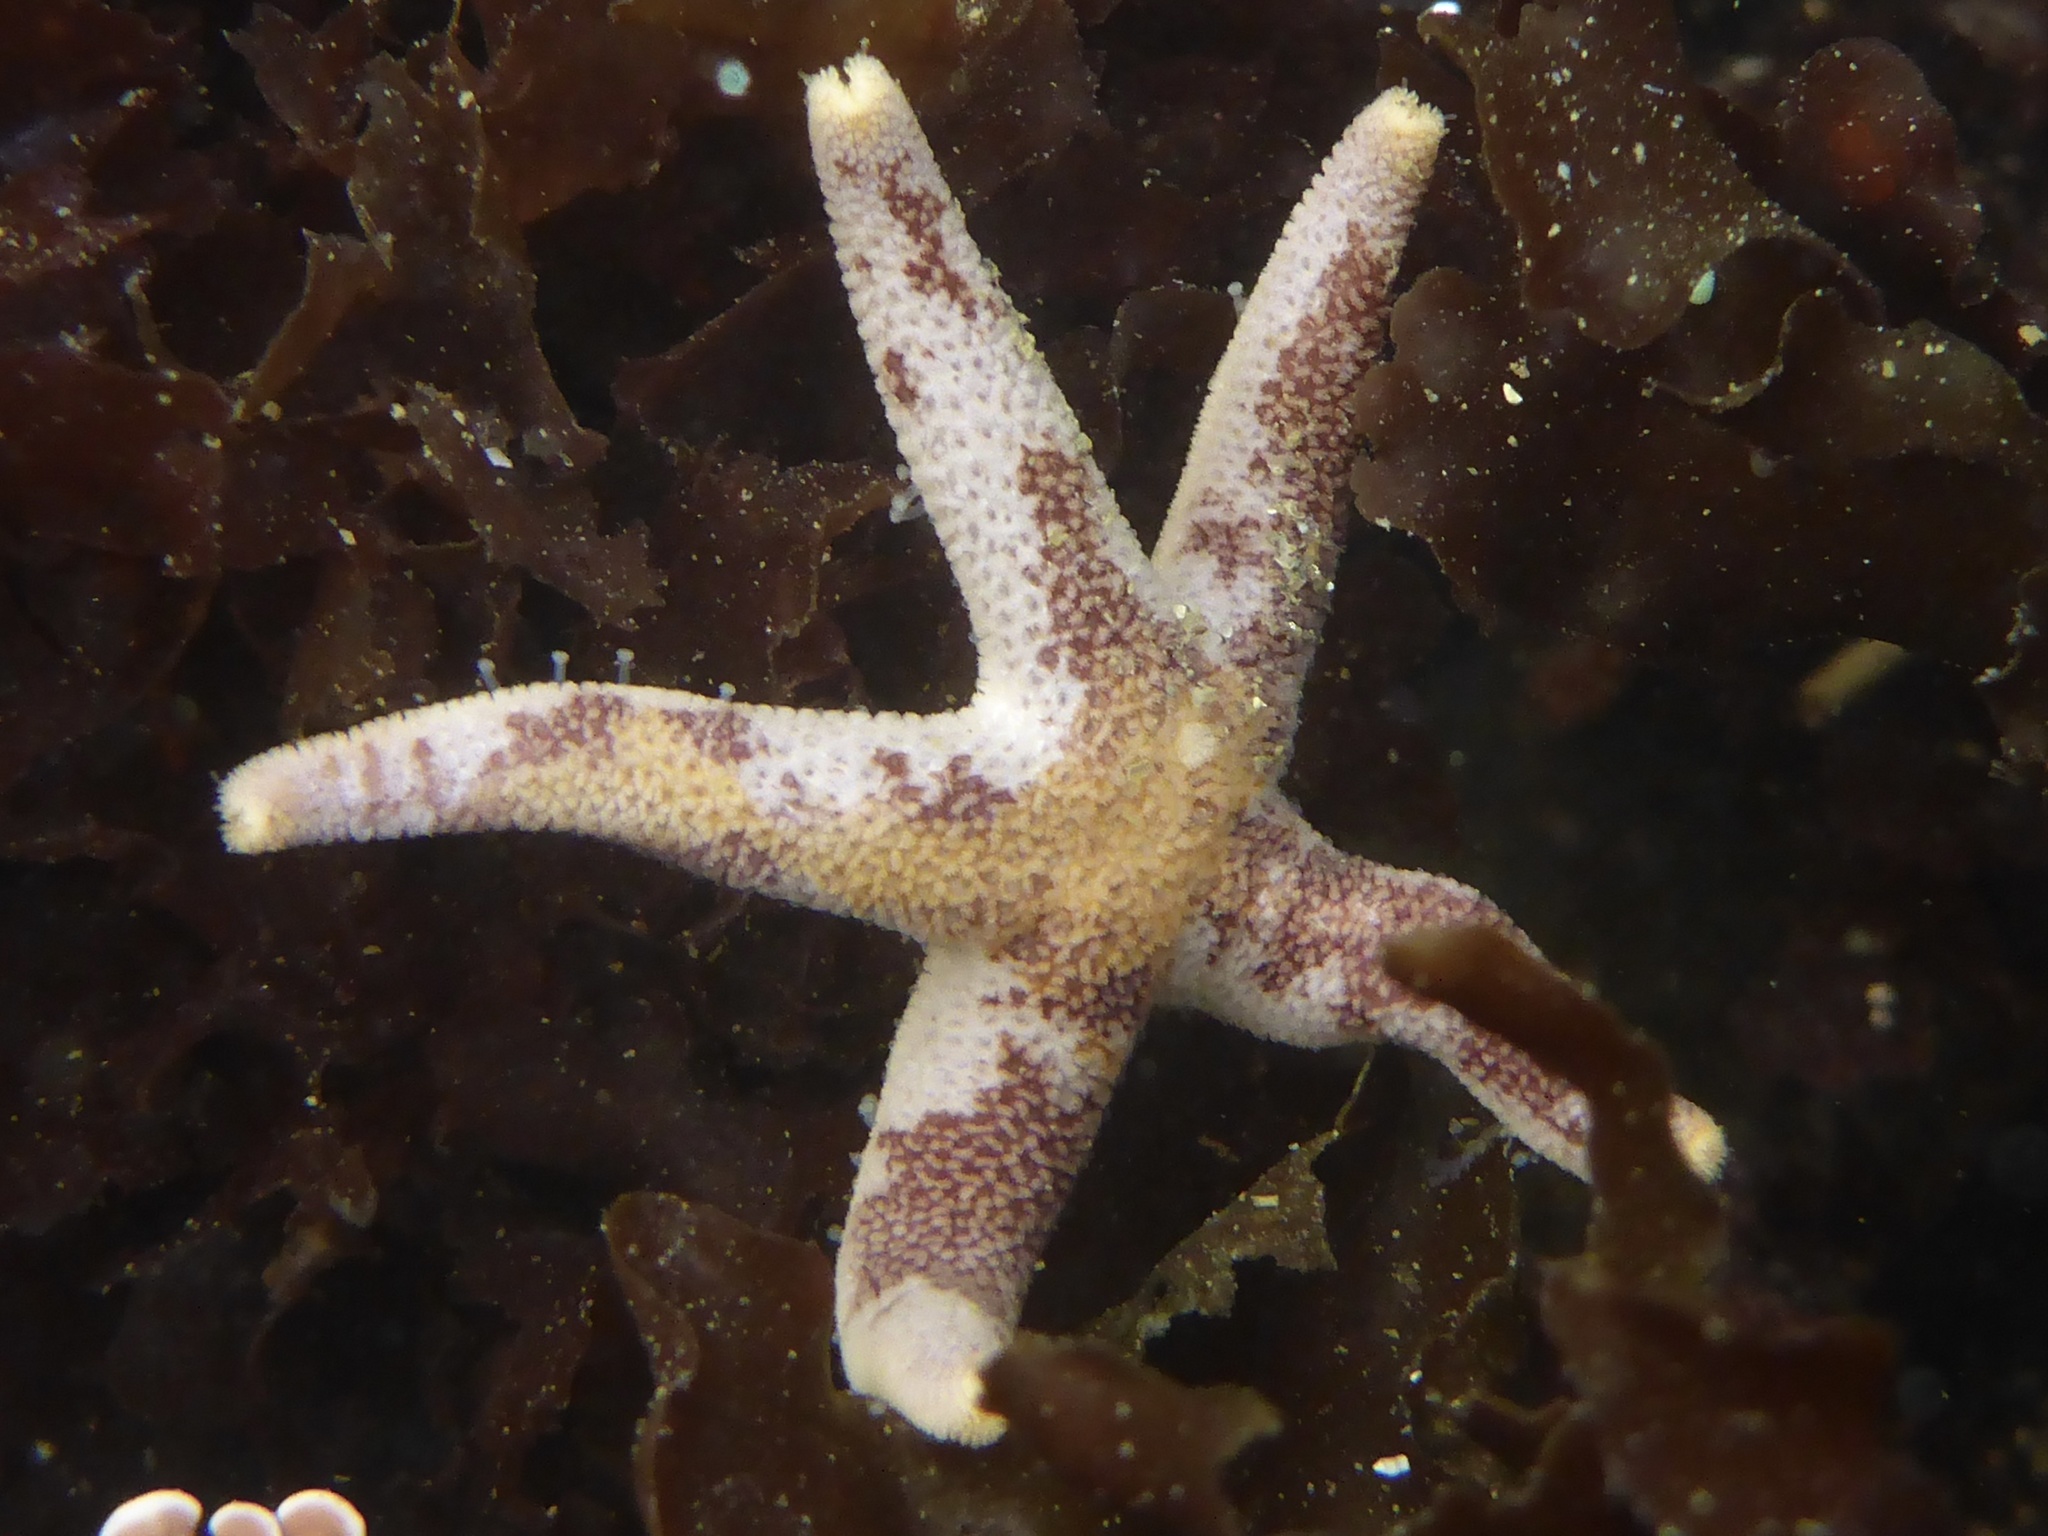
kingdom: Animalia
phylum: Echinodermata
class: Asteroidea
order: Spinulosida
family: Echinasteridae
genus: Henricia
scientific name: Henricia pumila
